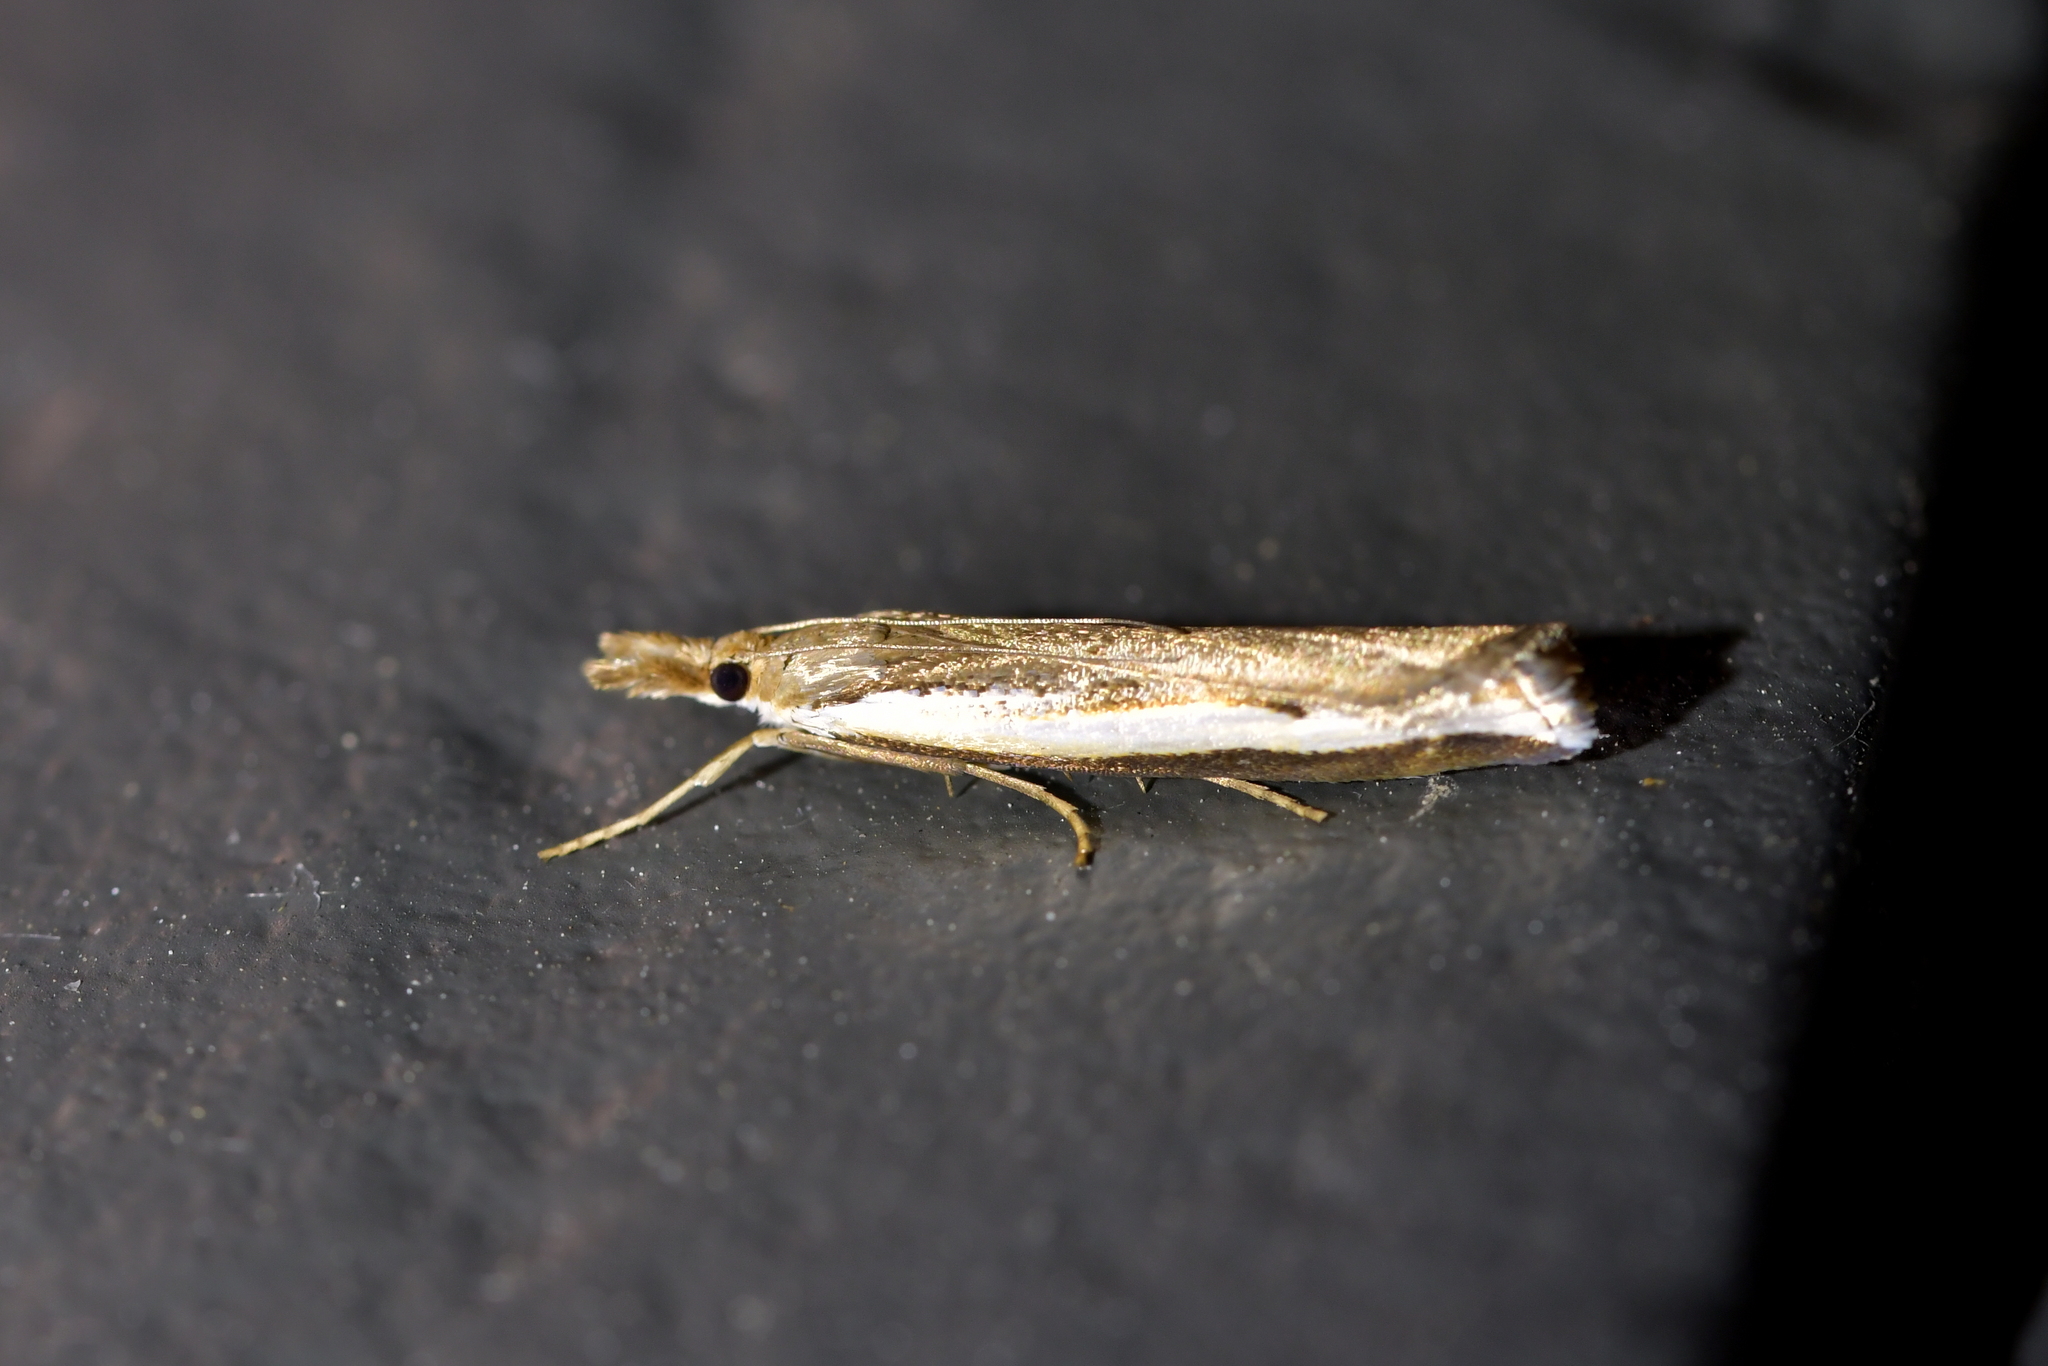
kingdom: Animalia
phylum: Arthropoda
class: Insecta
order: Lepidoptera
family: Crambidae
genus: Orocrambus
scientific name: Orocrambus flexuosellus
